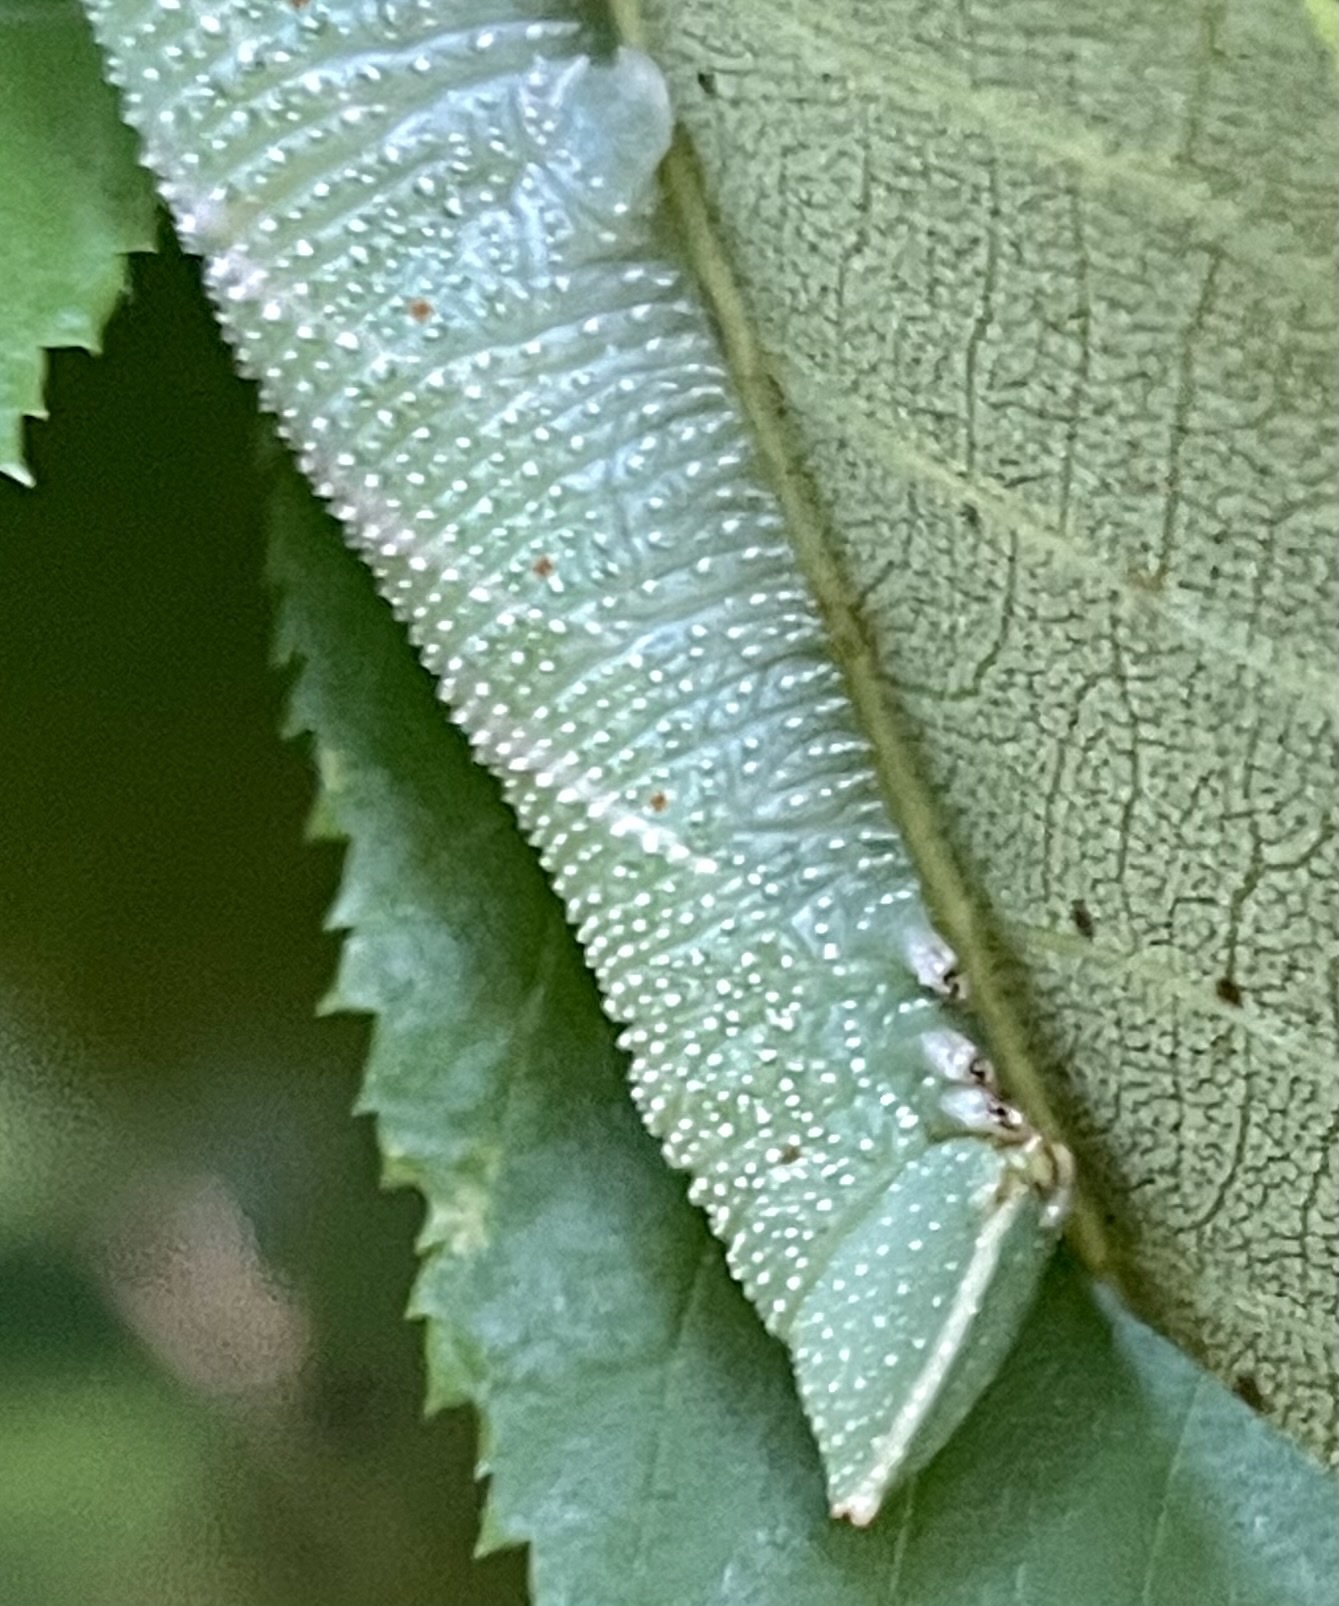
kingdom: Animalia
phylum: Arthropoda
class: Insecta
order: Lepidoptera
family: Sphingidae
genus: Amorpha
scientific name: Amorpha juglandis
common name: Walnut sphinx
